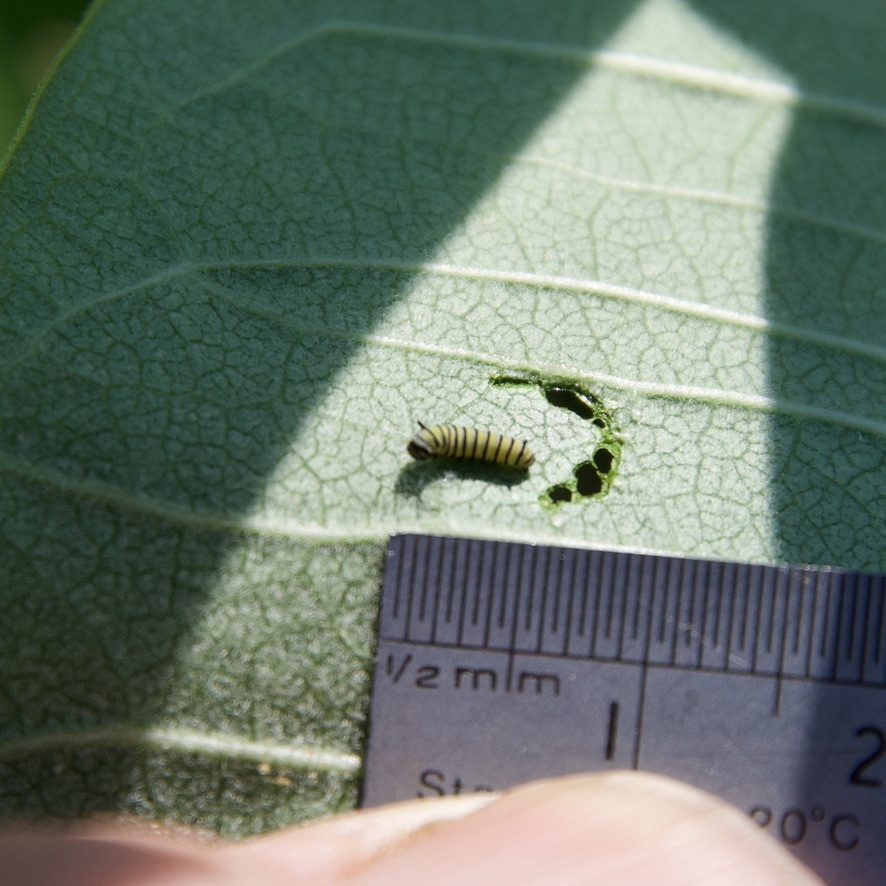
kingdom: Animalia
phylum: Arthropoda
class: Insecta
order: Lepidoptera
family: Nymphalidae
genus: Danaus
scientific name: Danaus plexippus
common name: Monarch
